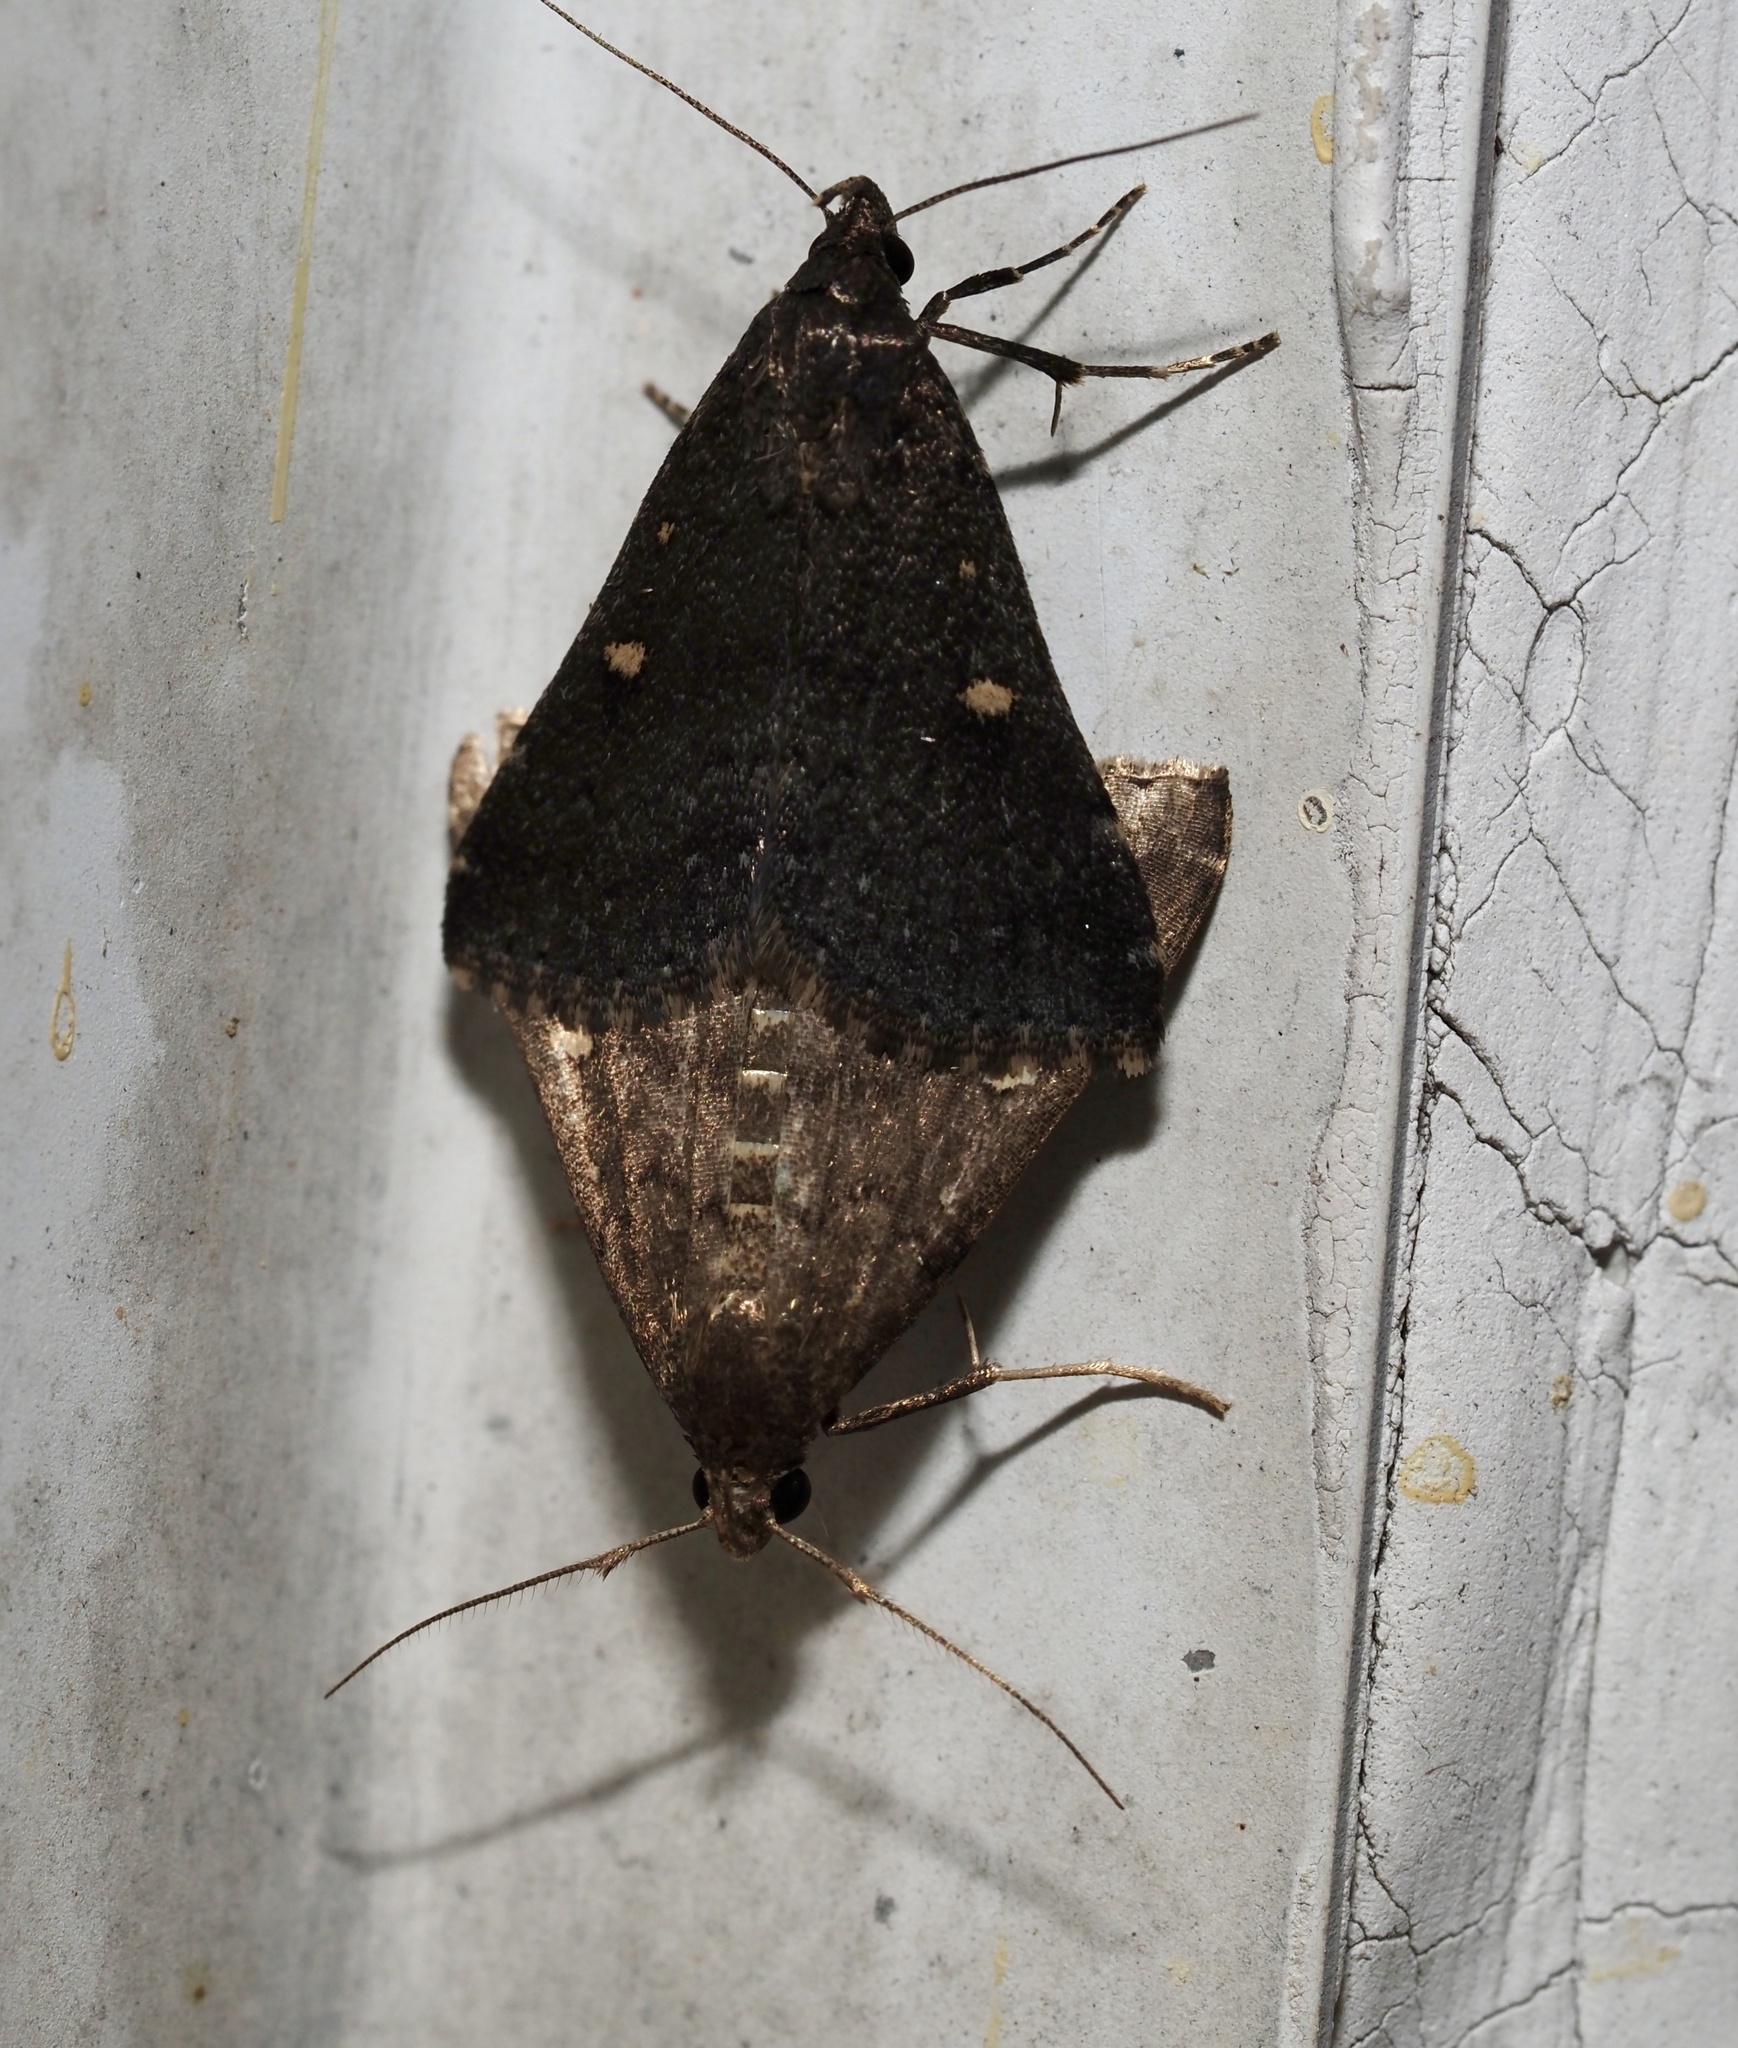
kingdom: Animalia
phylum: Arthropoda
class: Insecta
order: Lepidoptera
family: Erebidae
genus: Tetanolita
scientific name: Tetanolita mynesalis
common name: Smoky tetanolita moth
